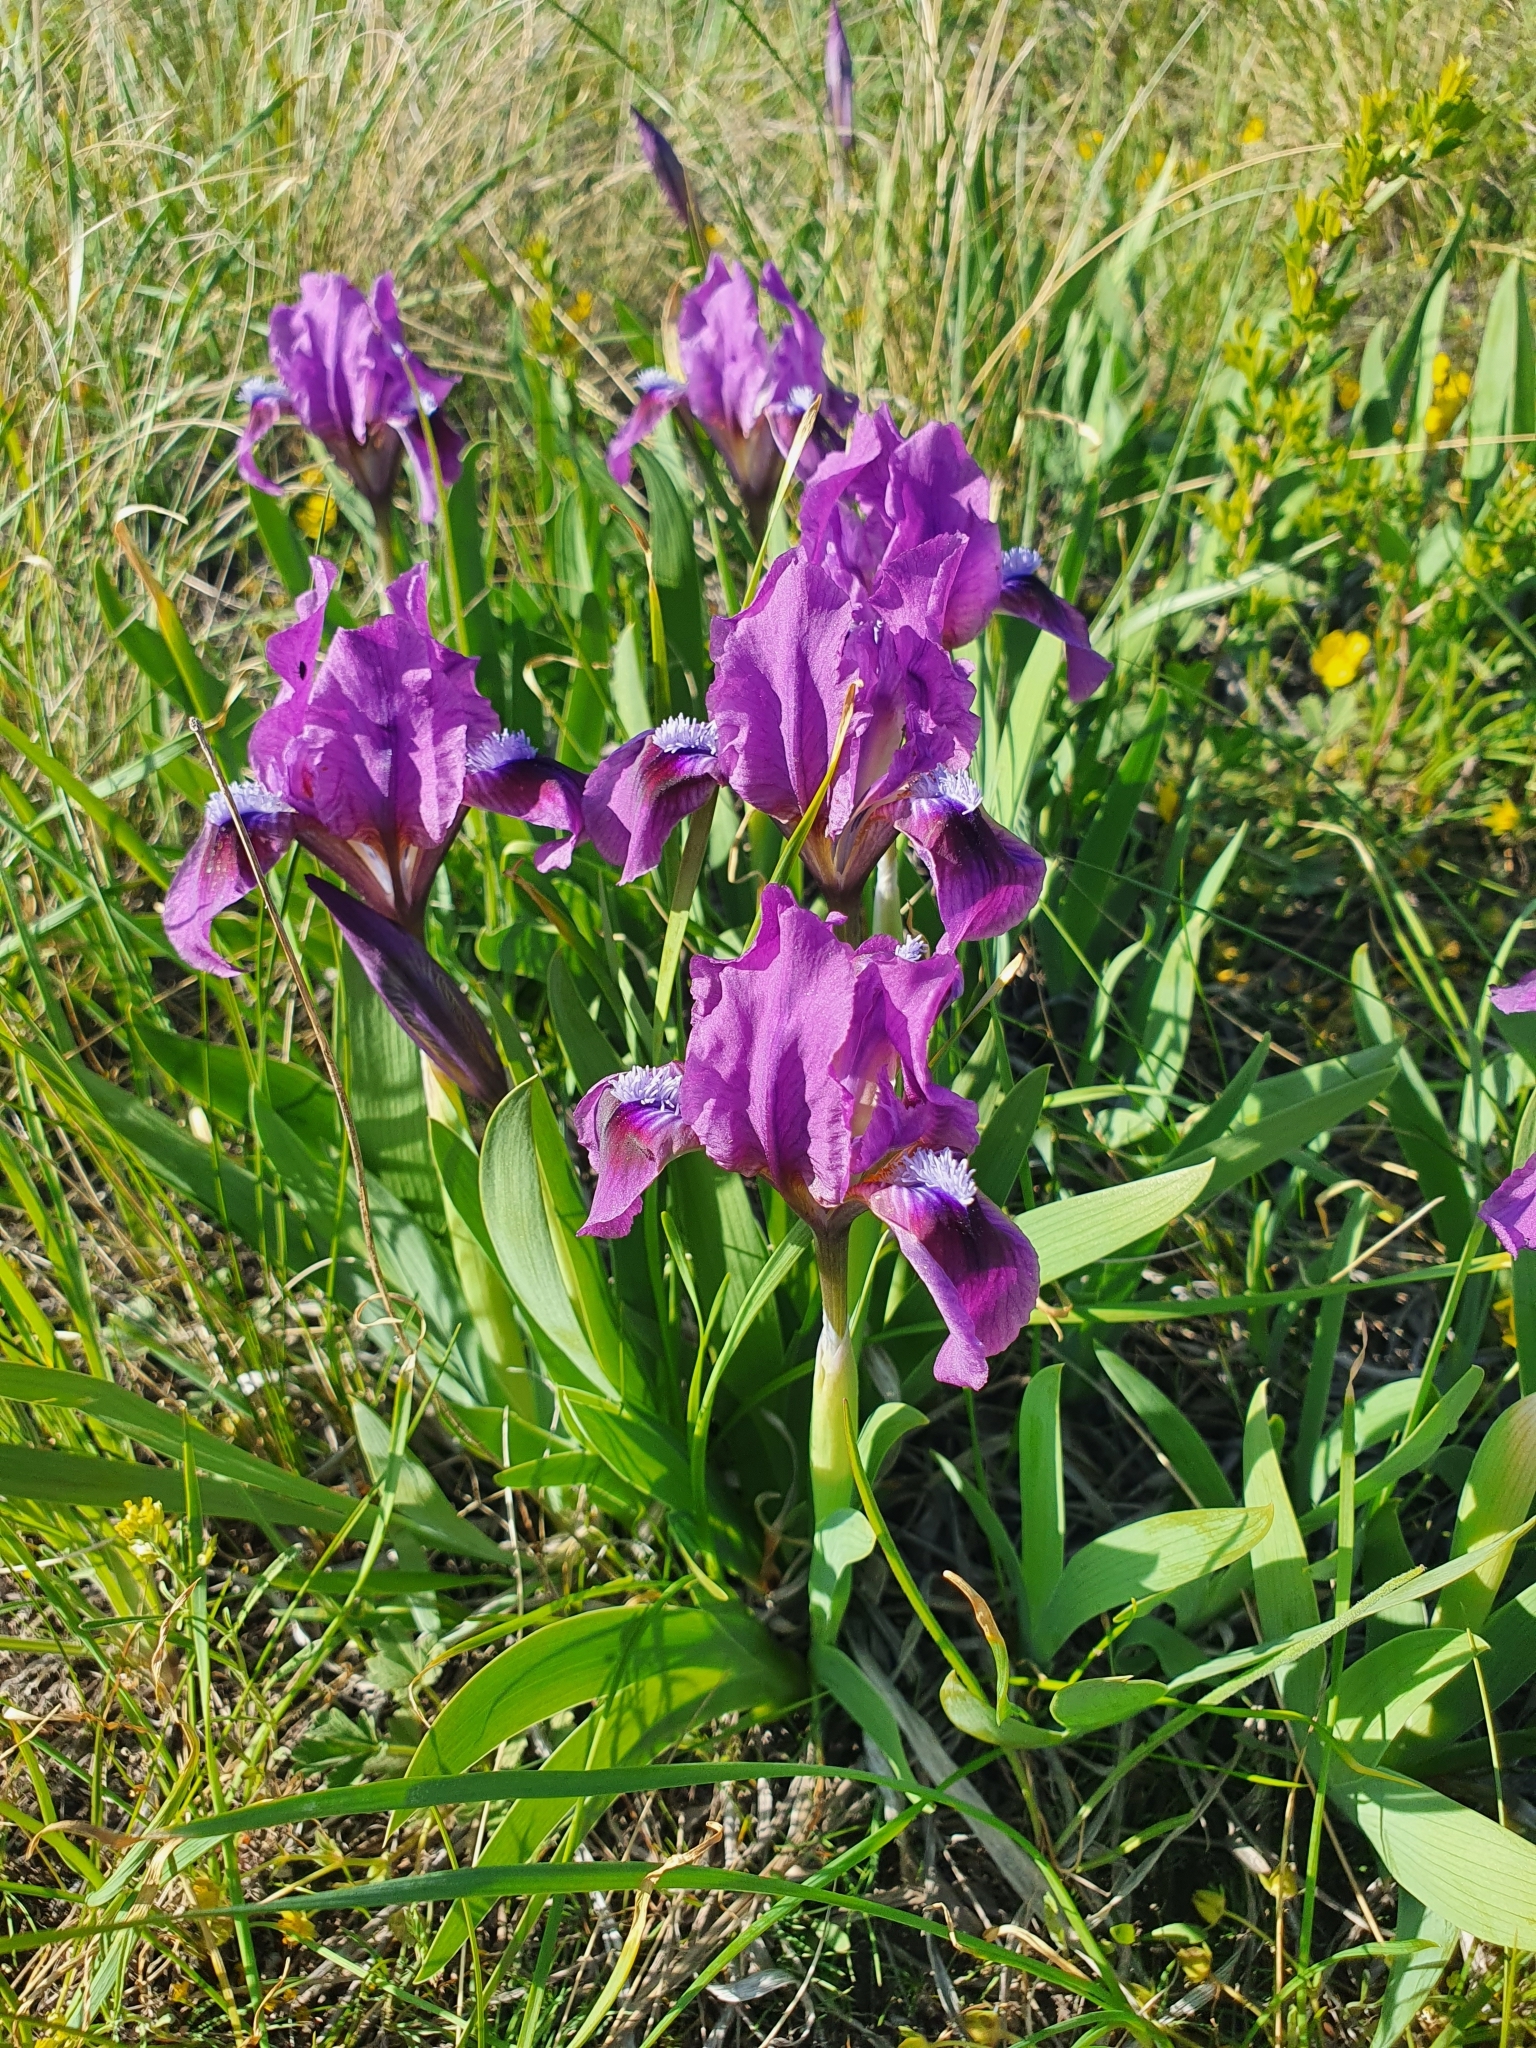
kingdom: Plantae
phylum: Tracheophyta
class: Liliopsida
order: Asparagales
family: Iridaceae
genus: Iris
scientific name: Iris pumila
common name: Dwarf iris
